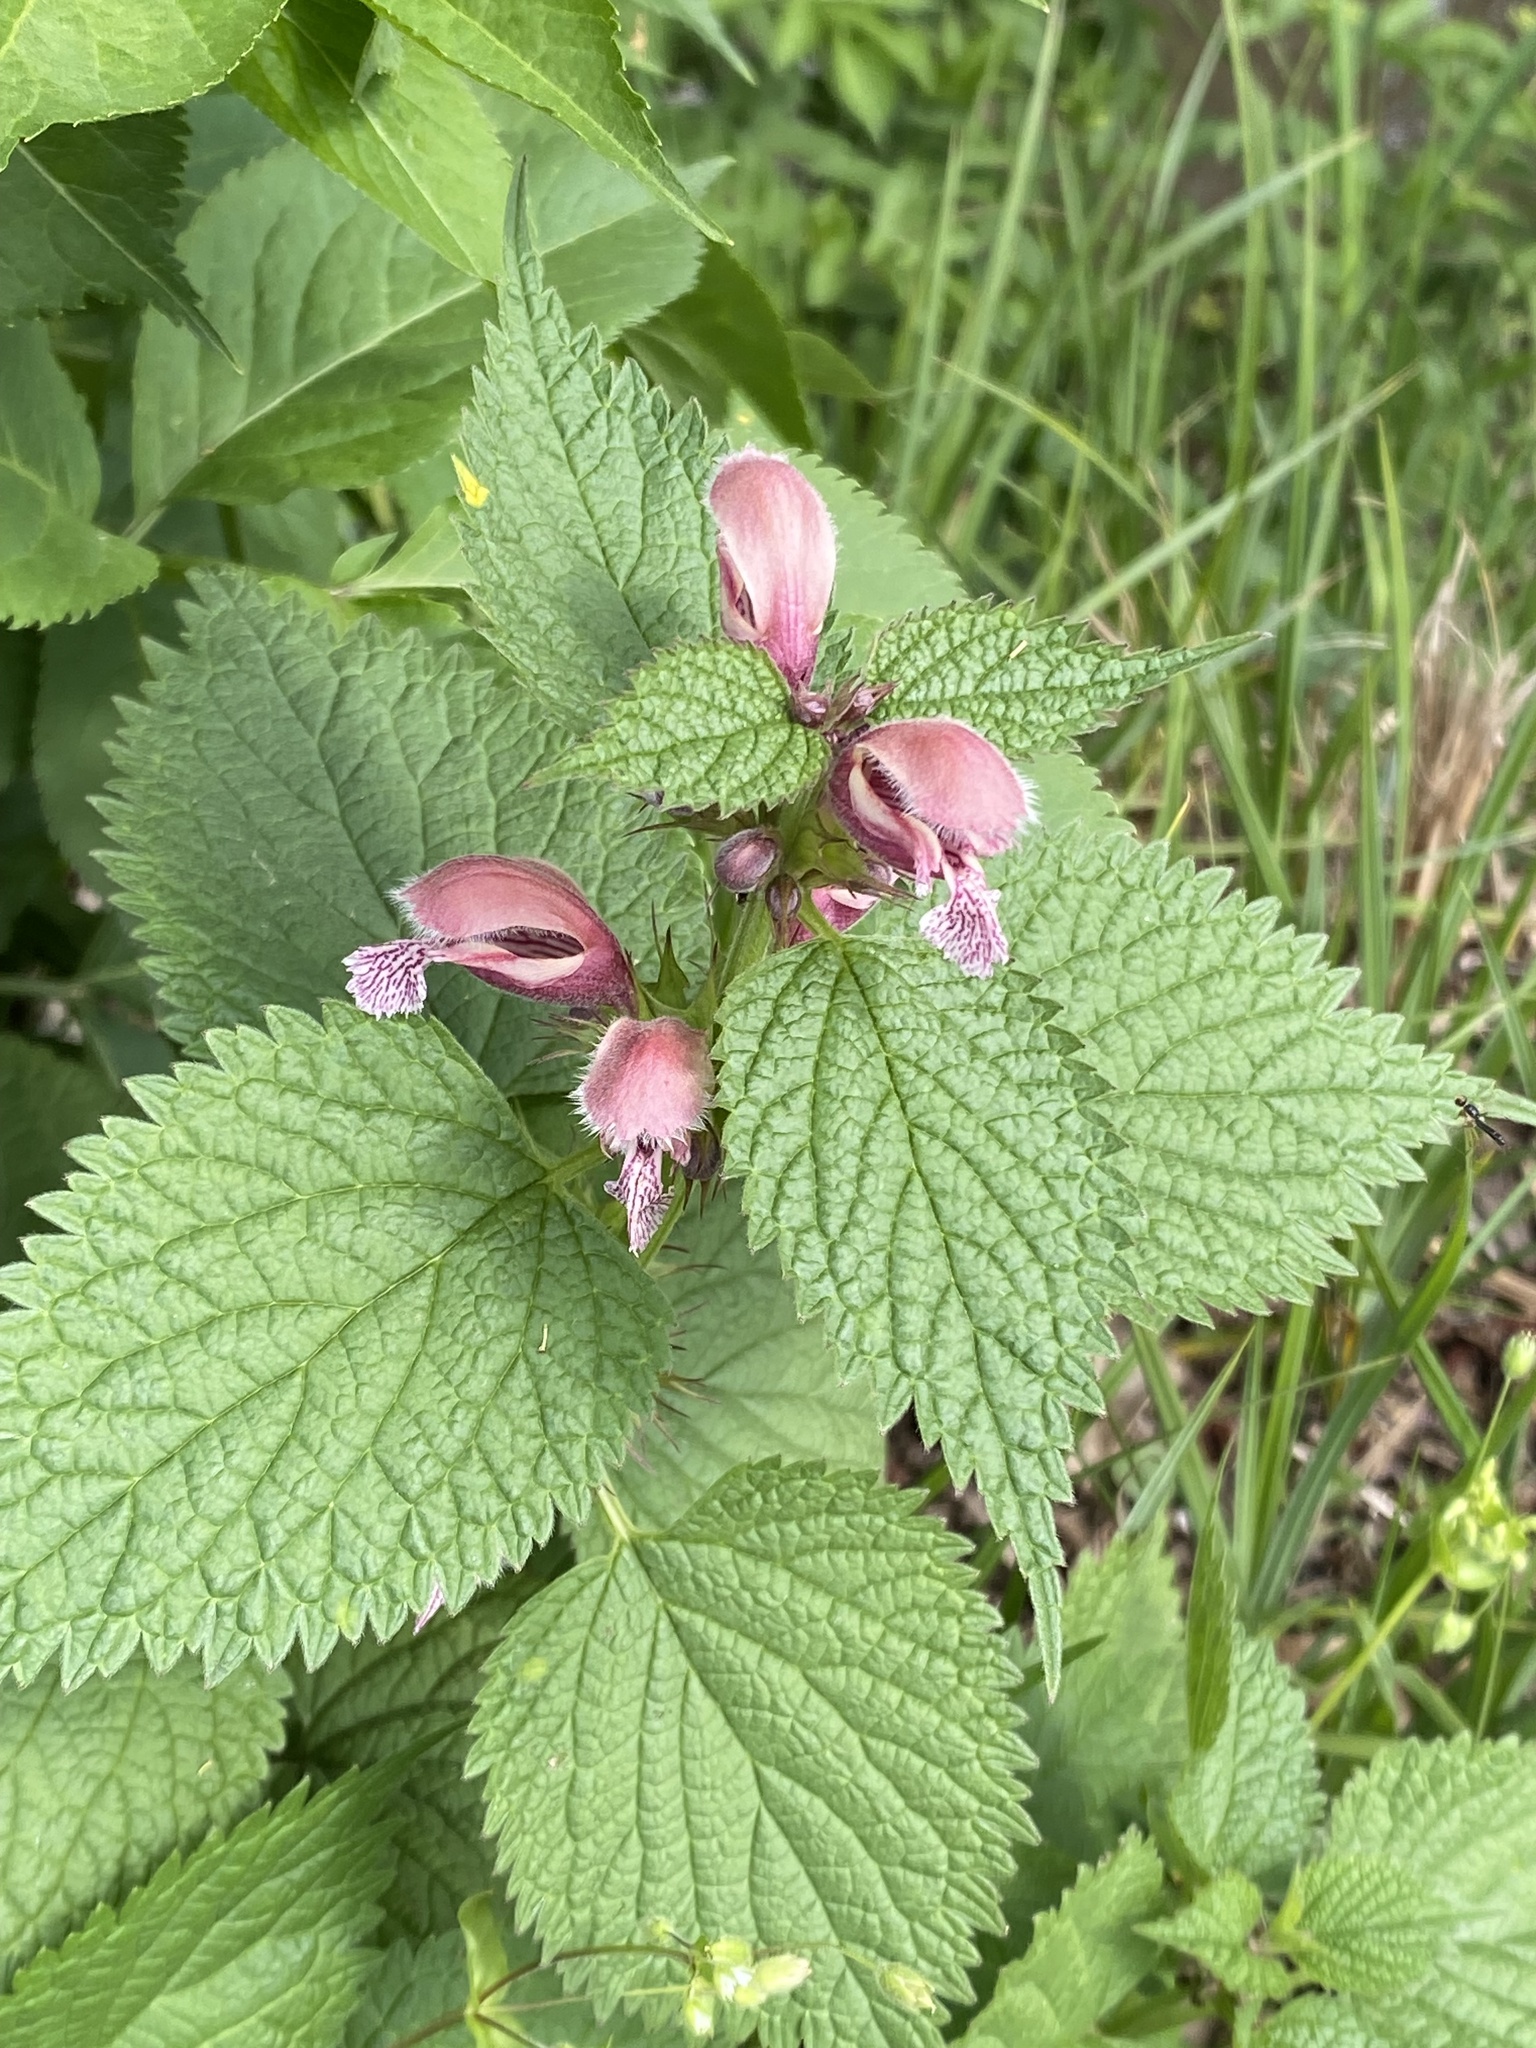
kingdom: Plantae
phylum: Tracheophyta
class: Magnoliopsida
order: Lamiales
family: Lamiaceae
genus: Lamium
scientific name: Lamium orvala
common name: Balm-leaved archangel
